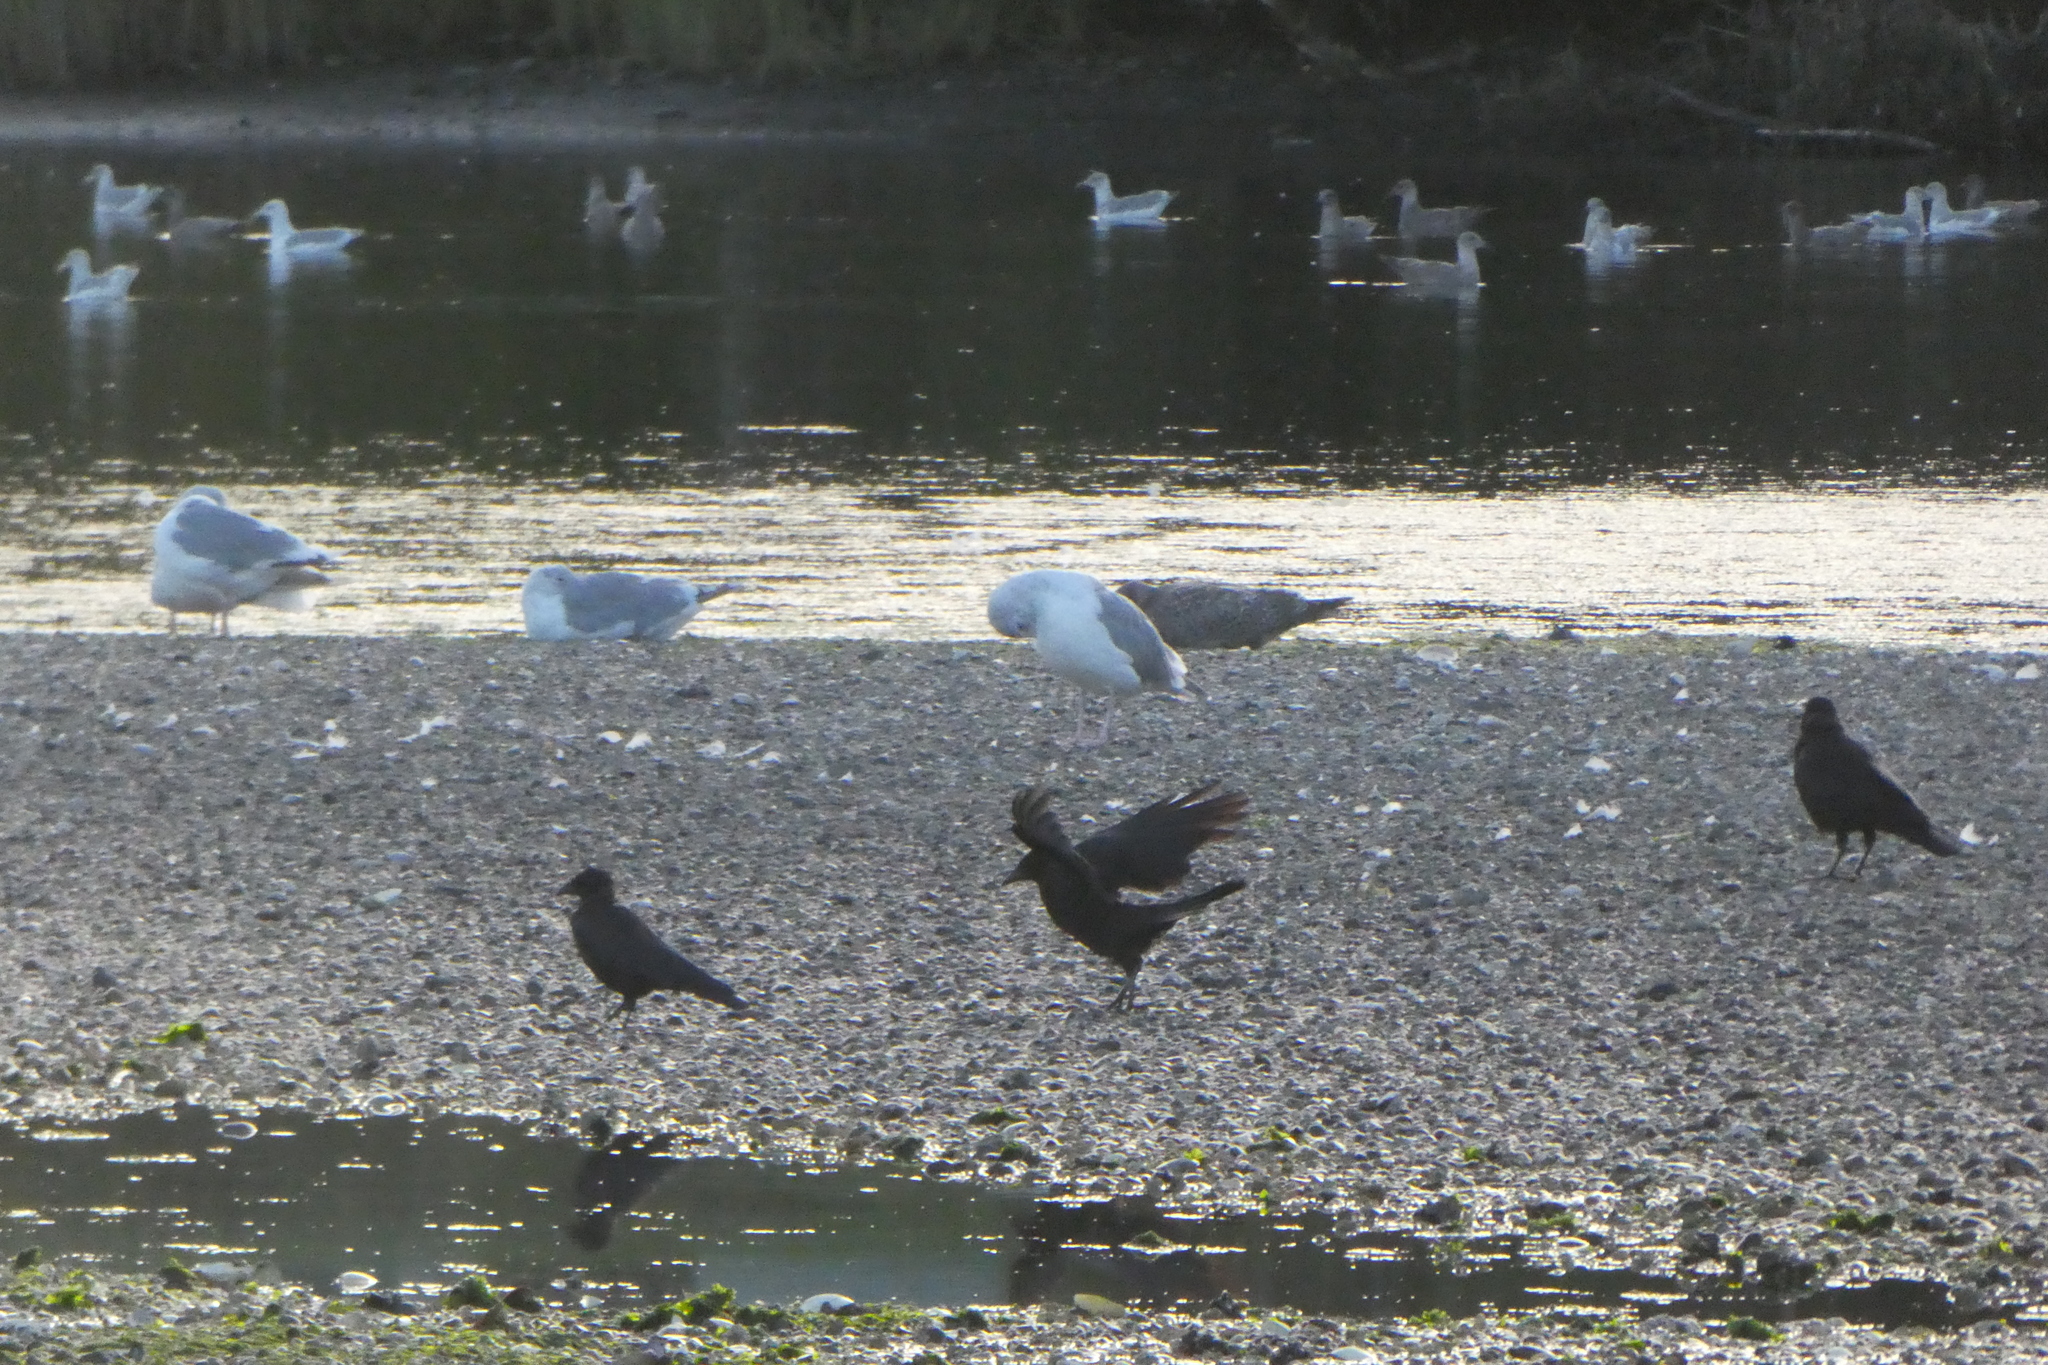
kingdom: Animalia
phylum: Chordata
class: Aves
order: Passeriformes
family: Corvidae
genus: Corvus
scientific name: Corvus brachyrhynchos
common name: American crow
